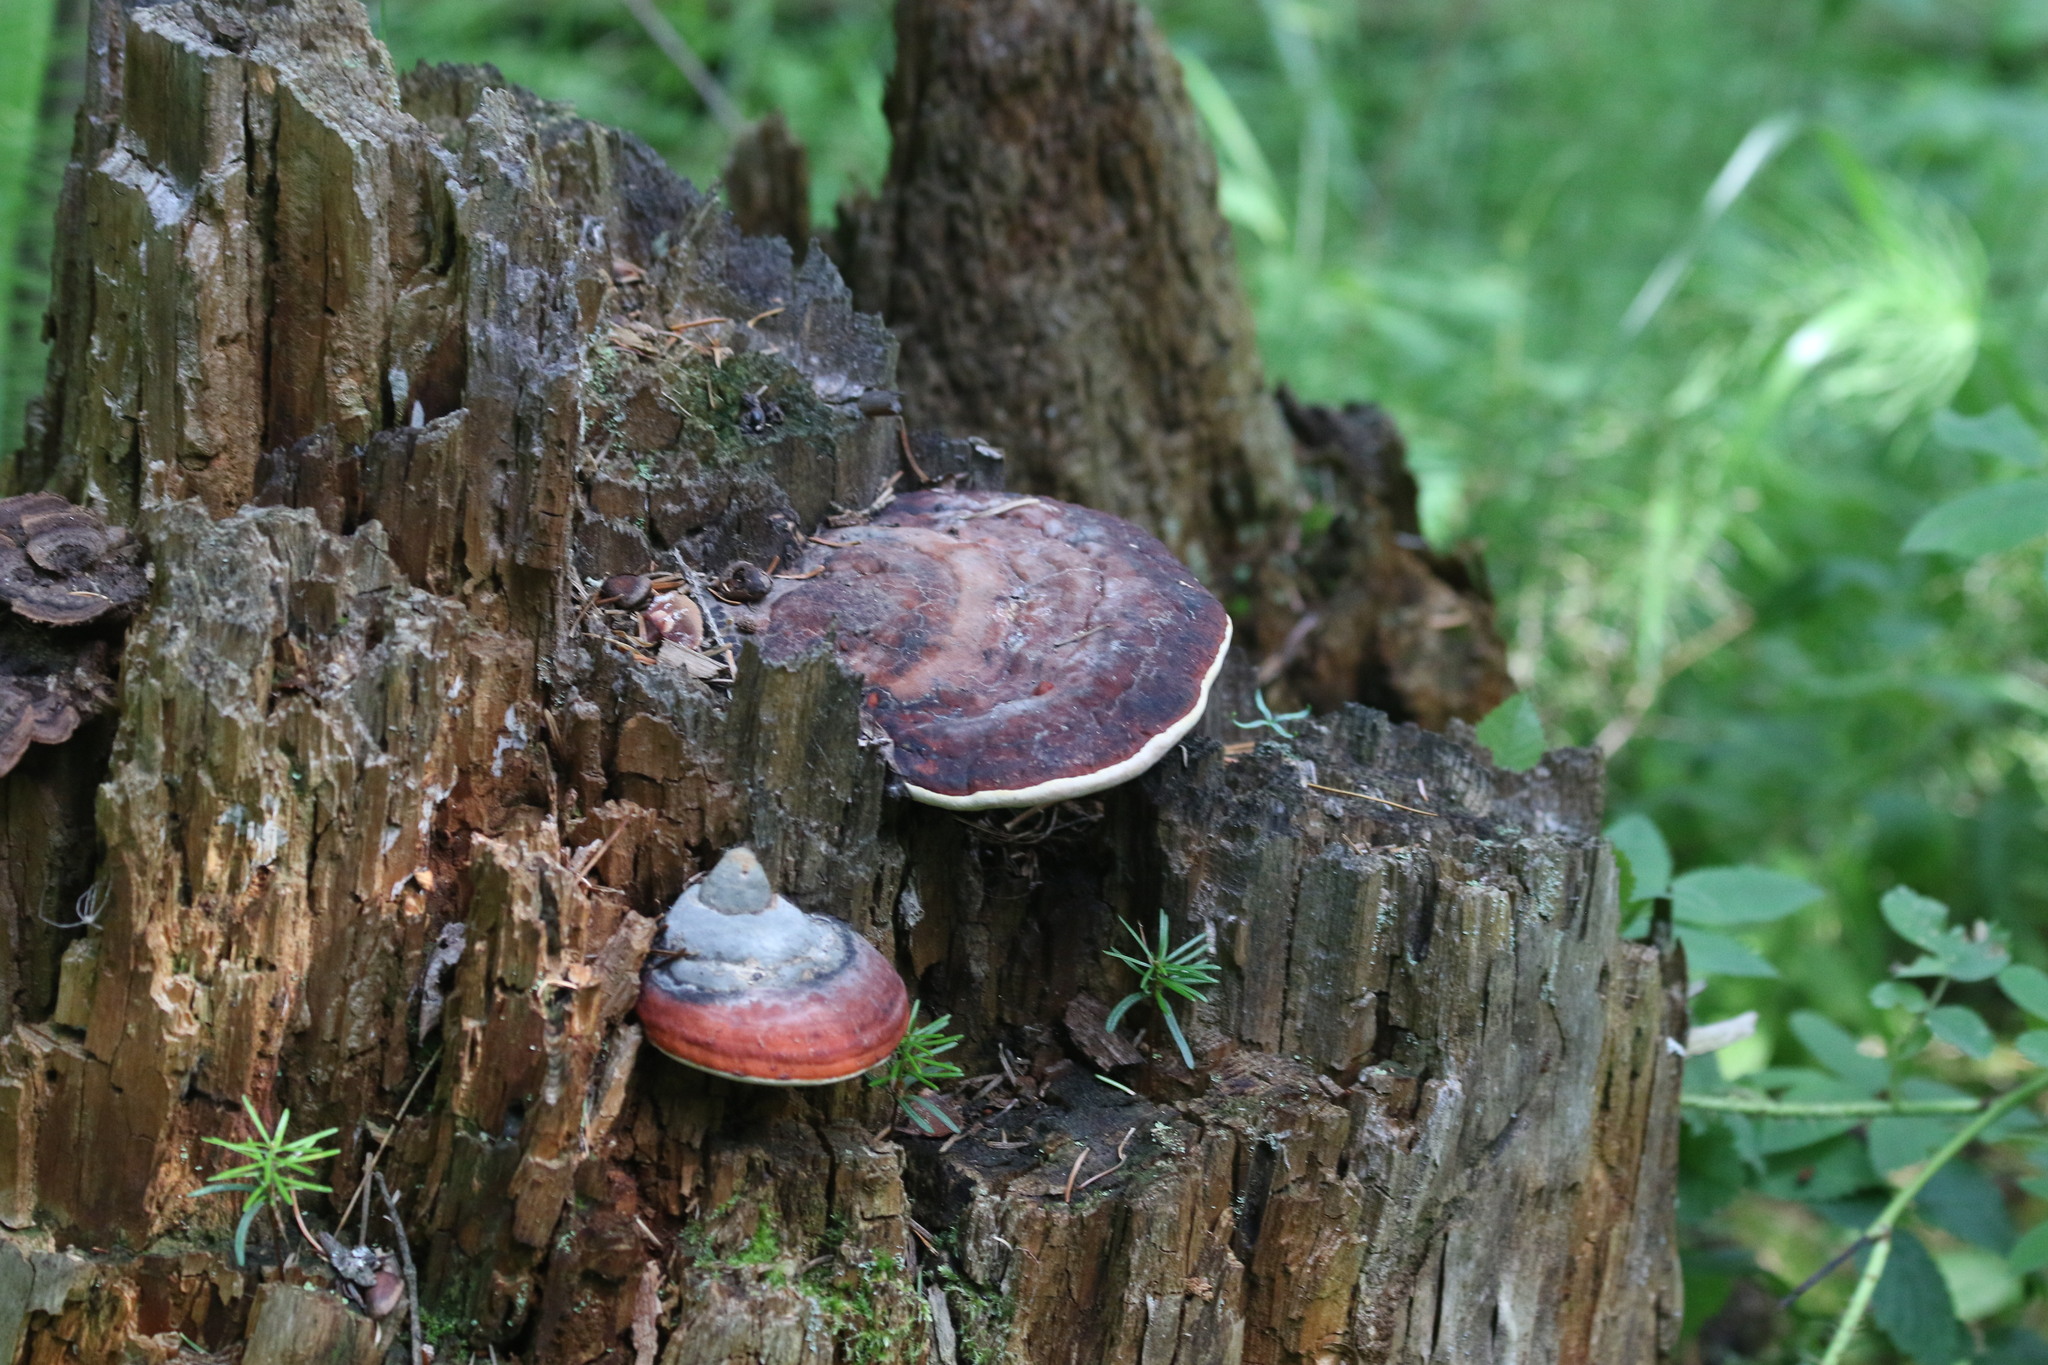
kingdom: Fungi
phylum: Basidiomycota
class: Agaricomycetes
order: Polyporales
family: Fomitopsidaceae
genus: Fomitopsis
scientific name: Fomitopsis pinicola
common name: Red-belted bracket
